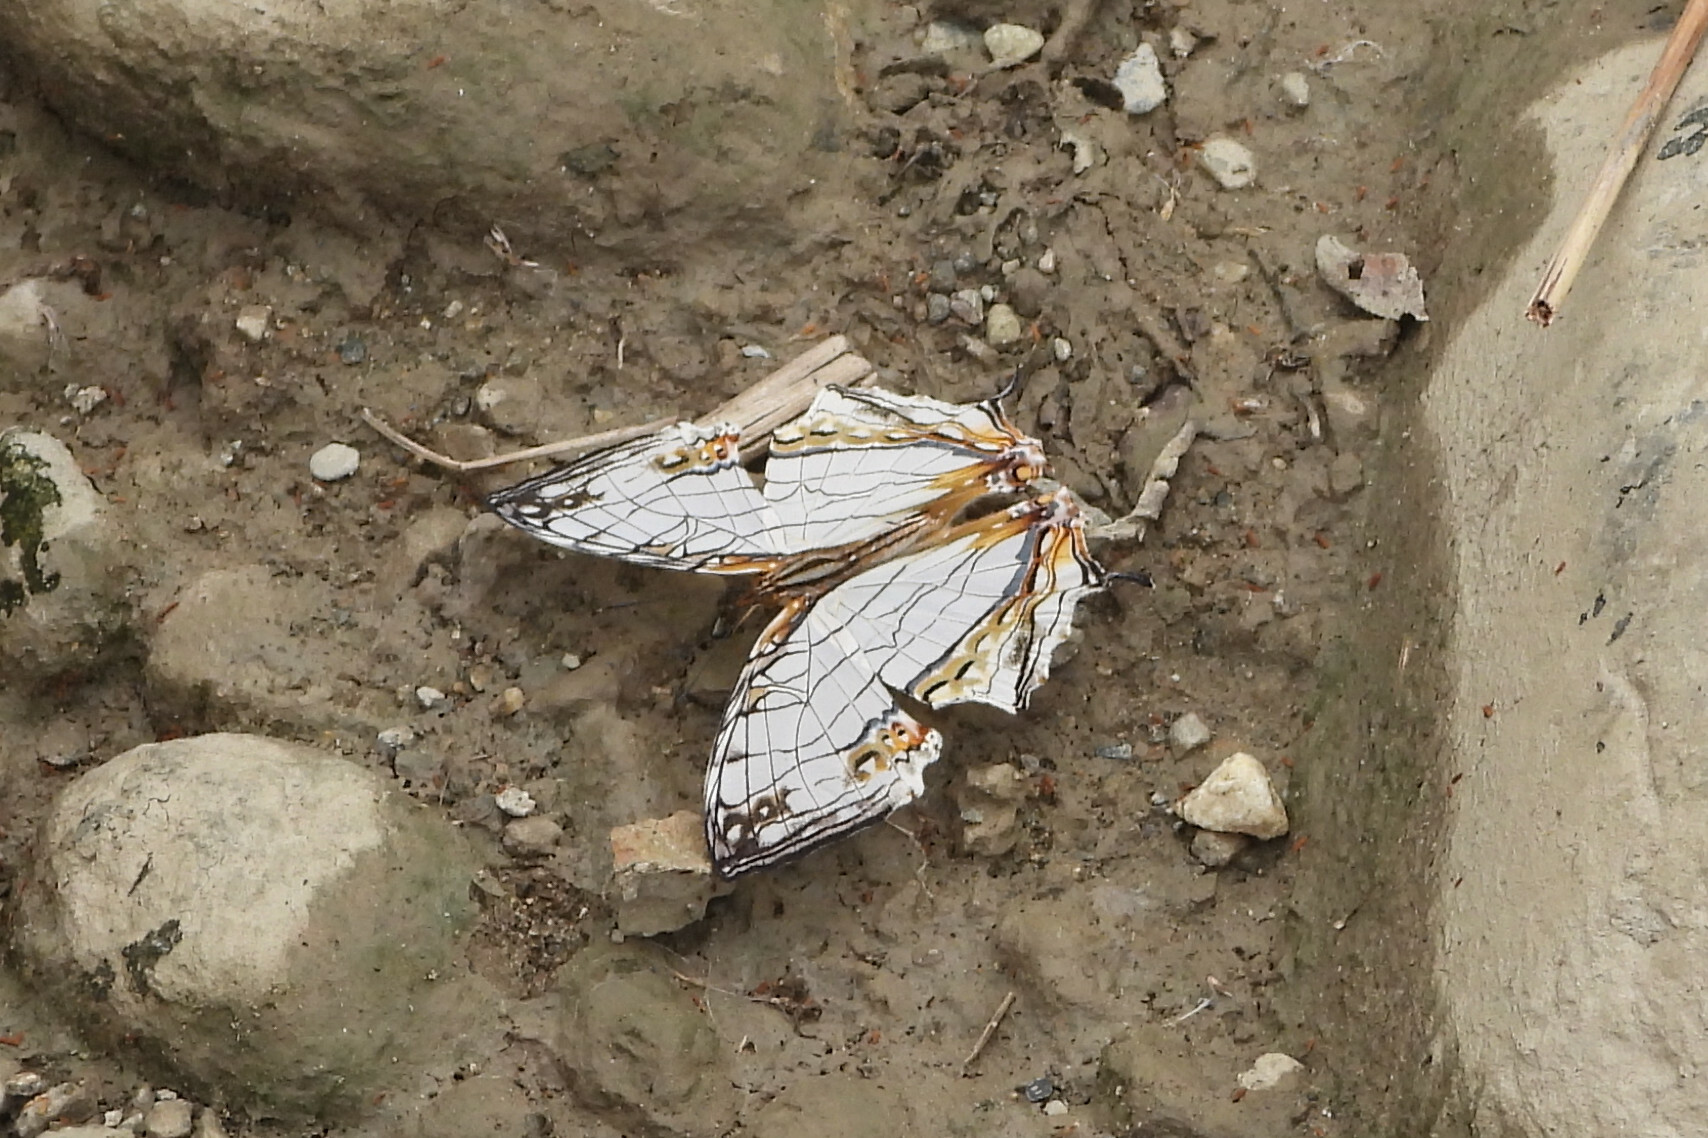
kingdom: Animalia
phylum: Arthropoda
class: Insecta
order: Lepidoptera
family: Nymphalidae
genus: Cyrestis
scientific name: Cyrestis thyodamas
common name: Common mapwing
